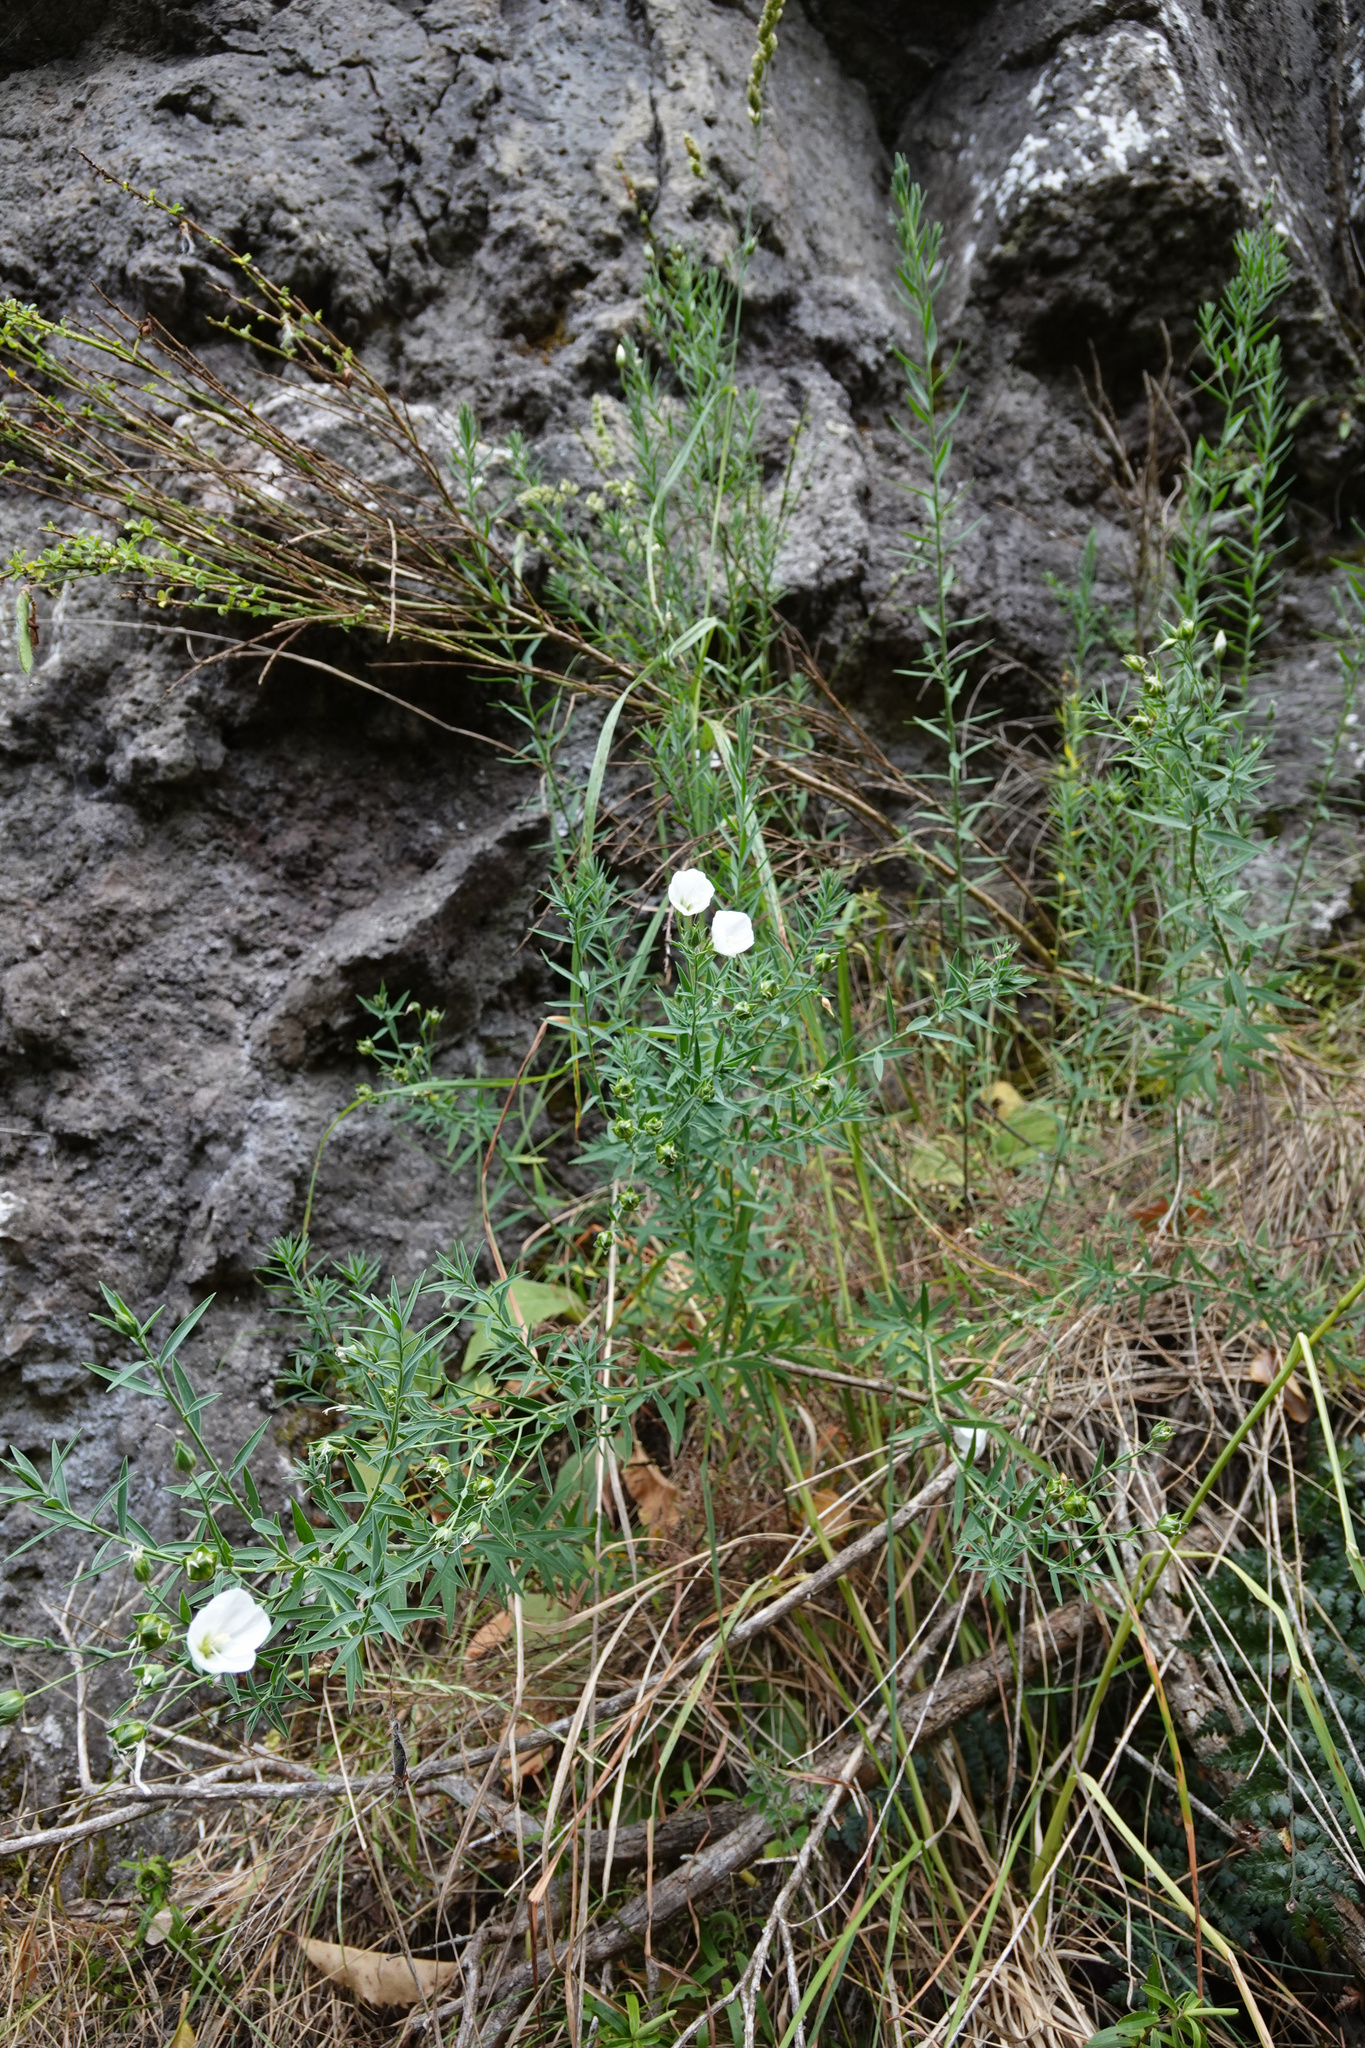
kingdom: Plantae
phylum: Tracheophyta
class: Magnoliopsida
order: Malpighiales
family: Linaceae
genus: Linum
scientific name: Linum monogynum
